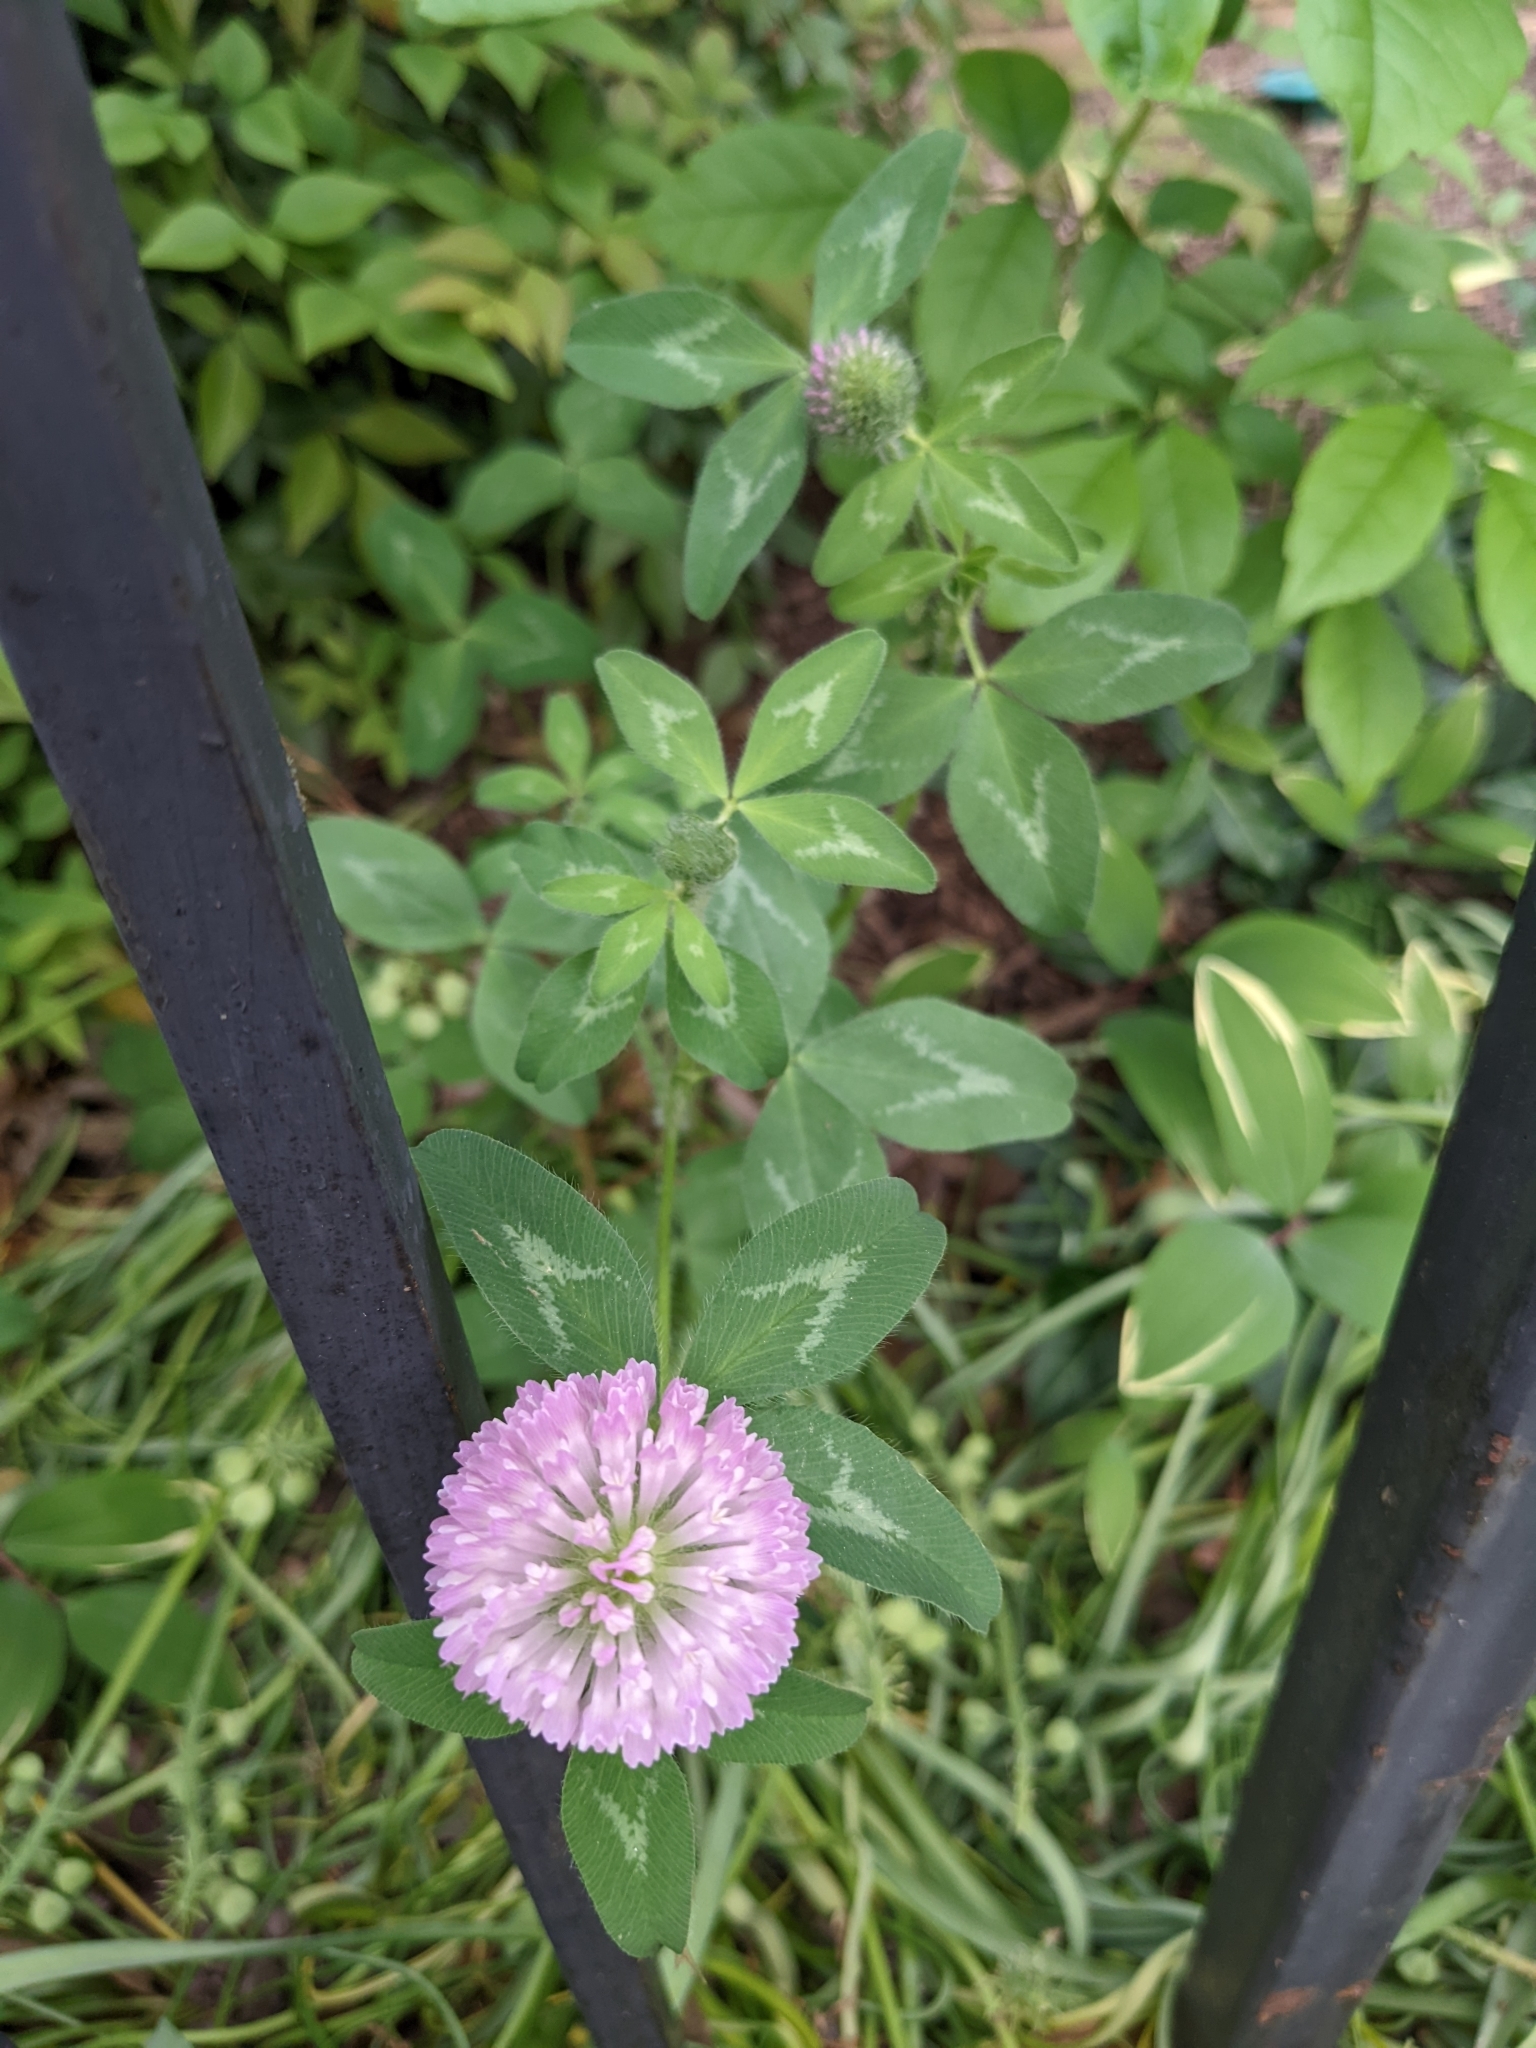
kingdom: Plantae
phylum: Tracheophyta
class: Magnoliopsida
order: Fabales
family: Fabaceae
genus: Trifolium
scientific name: Trifolium pratense
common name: Red clover
